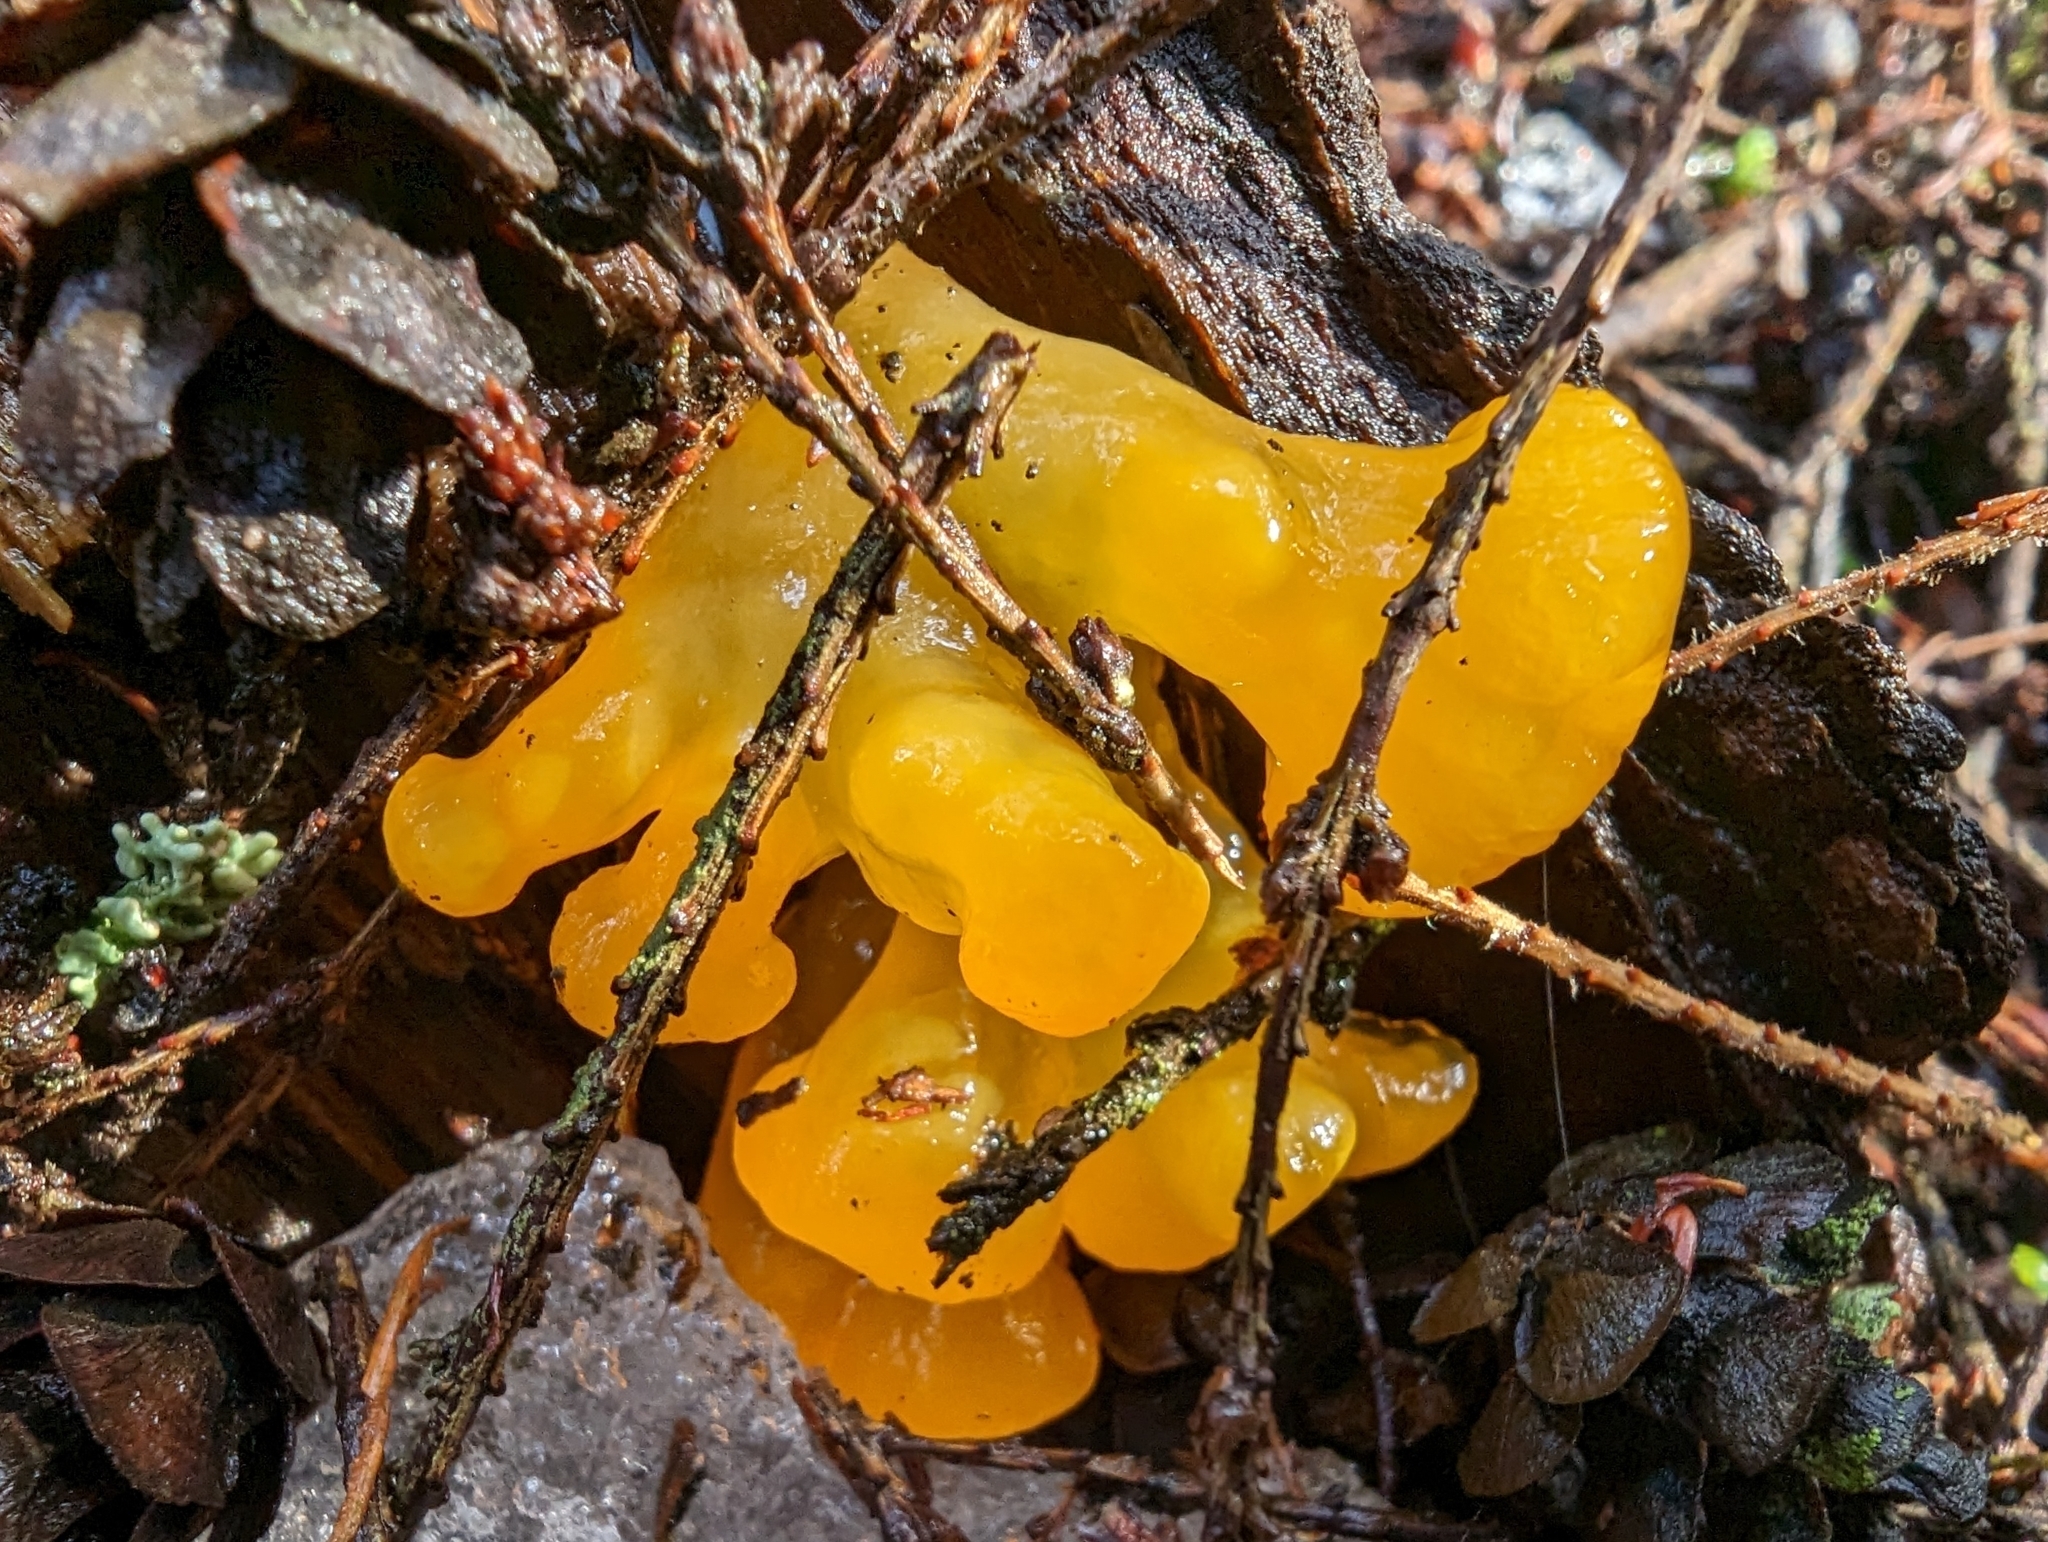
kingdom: Fungi
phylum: Basidiomycota
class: Dacrymycetes
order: Dacrymycetales
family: Dacrymycetaceae
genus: Dacrymyces
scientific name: Dacrymyces chrysospermus
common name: Orange jelly spot
